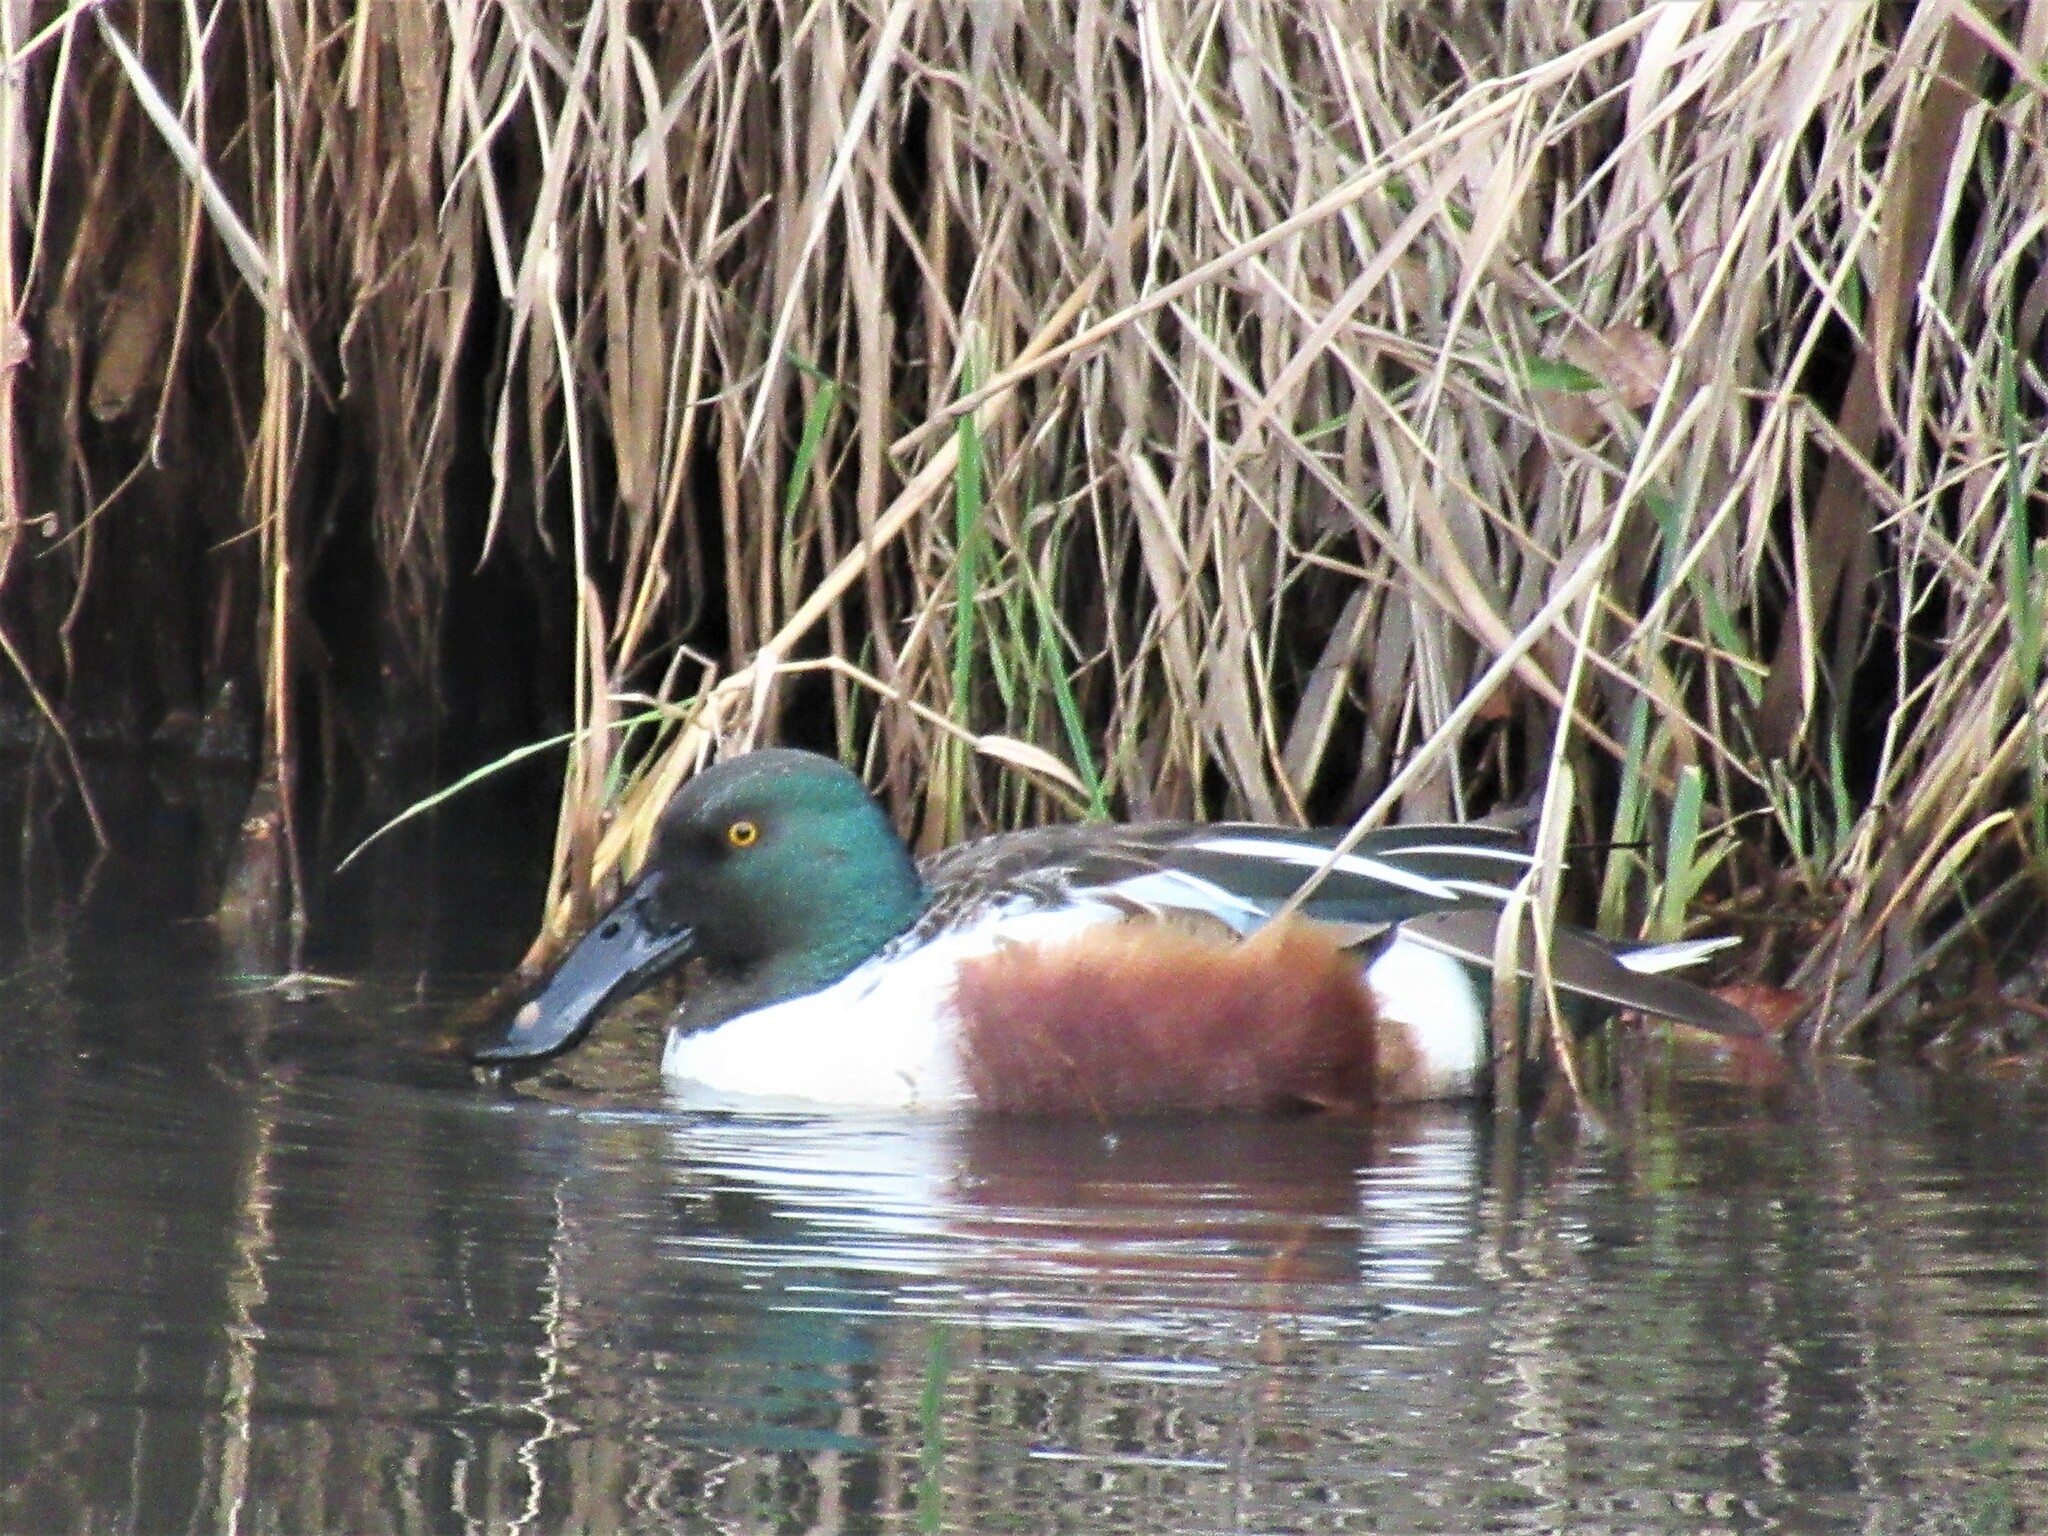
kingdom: Animalia
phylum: Chordata
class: Aves
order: Anseriformes
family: Anatidae
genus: Spatula
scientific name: Spatula clypeata
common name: Northern shoveler
